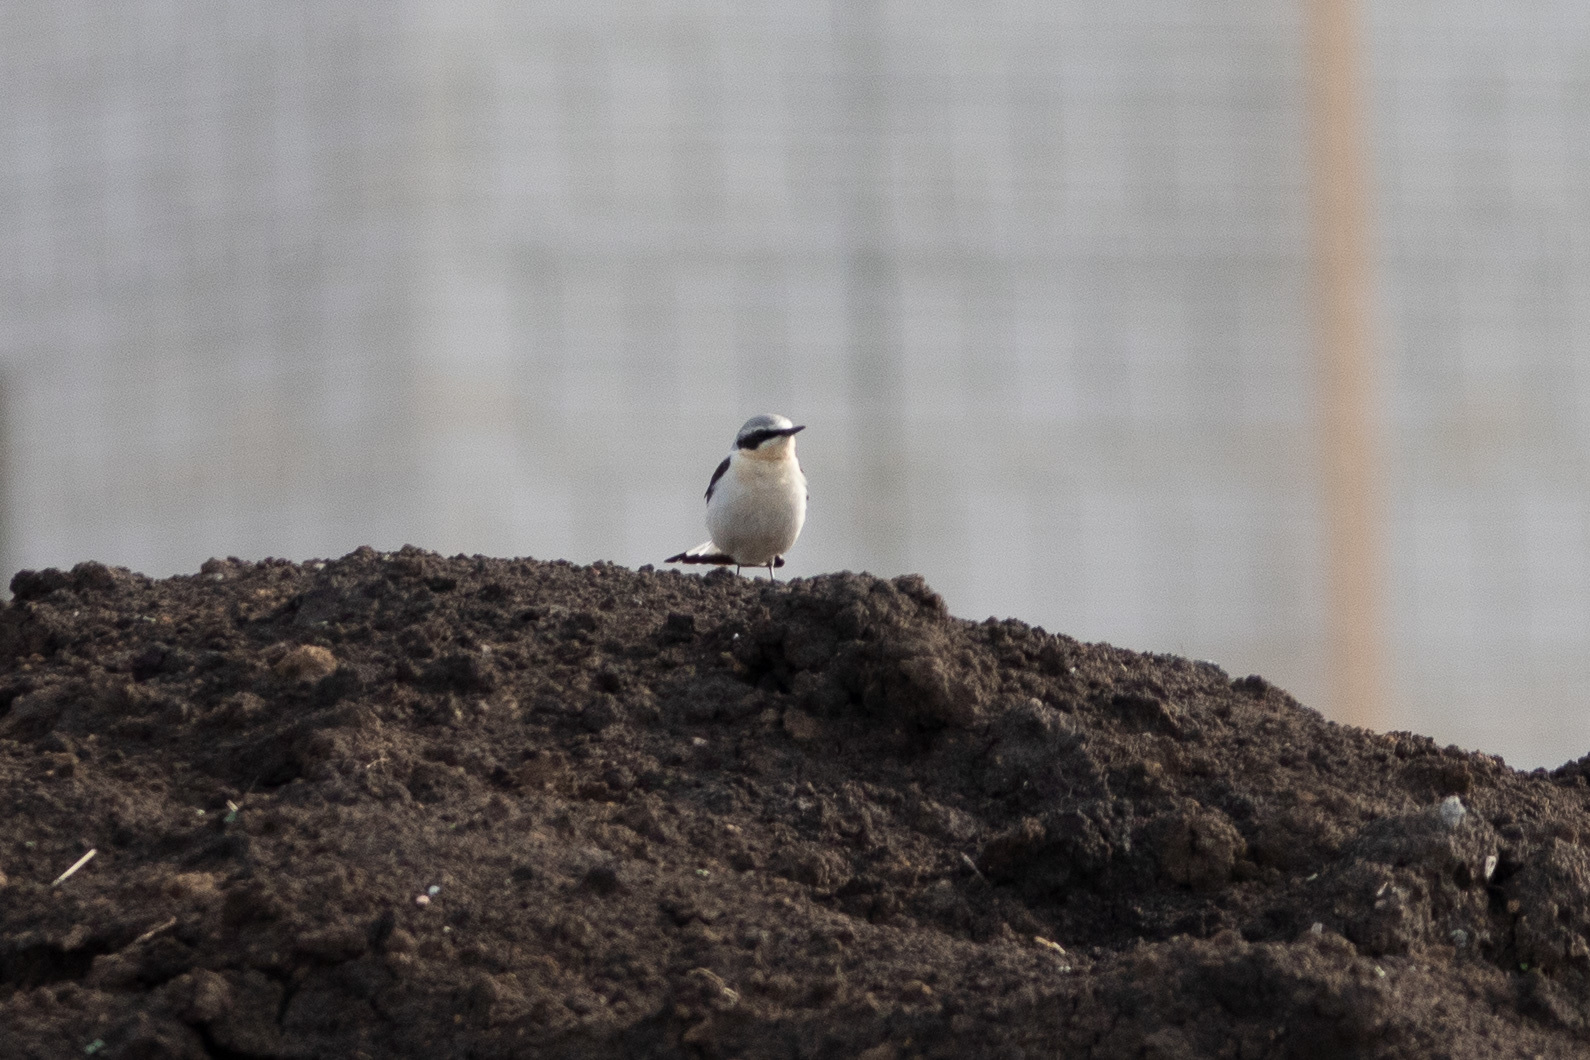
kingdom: Animalia
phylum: Chordata
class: Aves
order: Passeriformes
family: Muscicapidae
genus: Oenanthe
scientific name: Oenanthe oenanthe
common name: Northern wheatear
